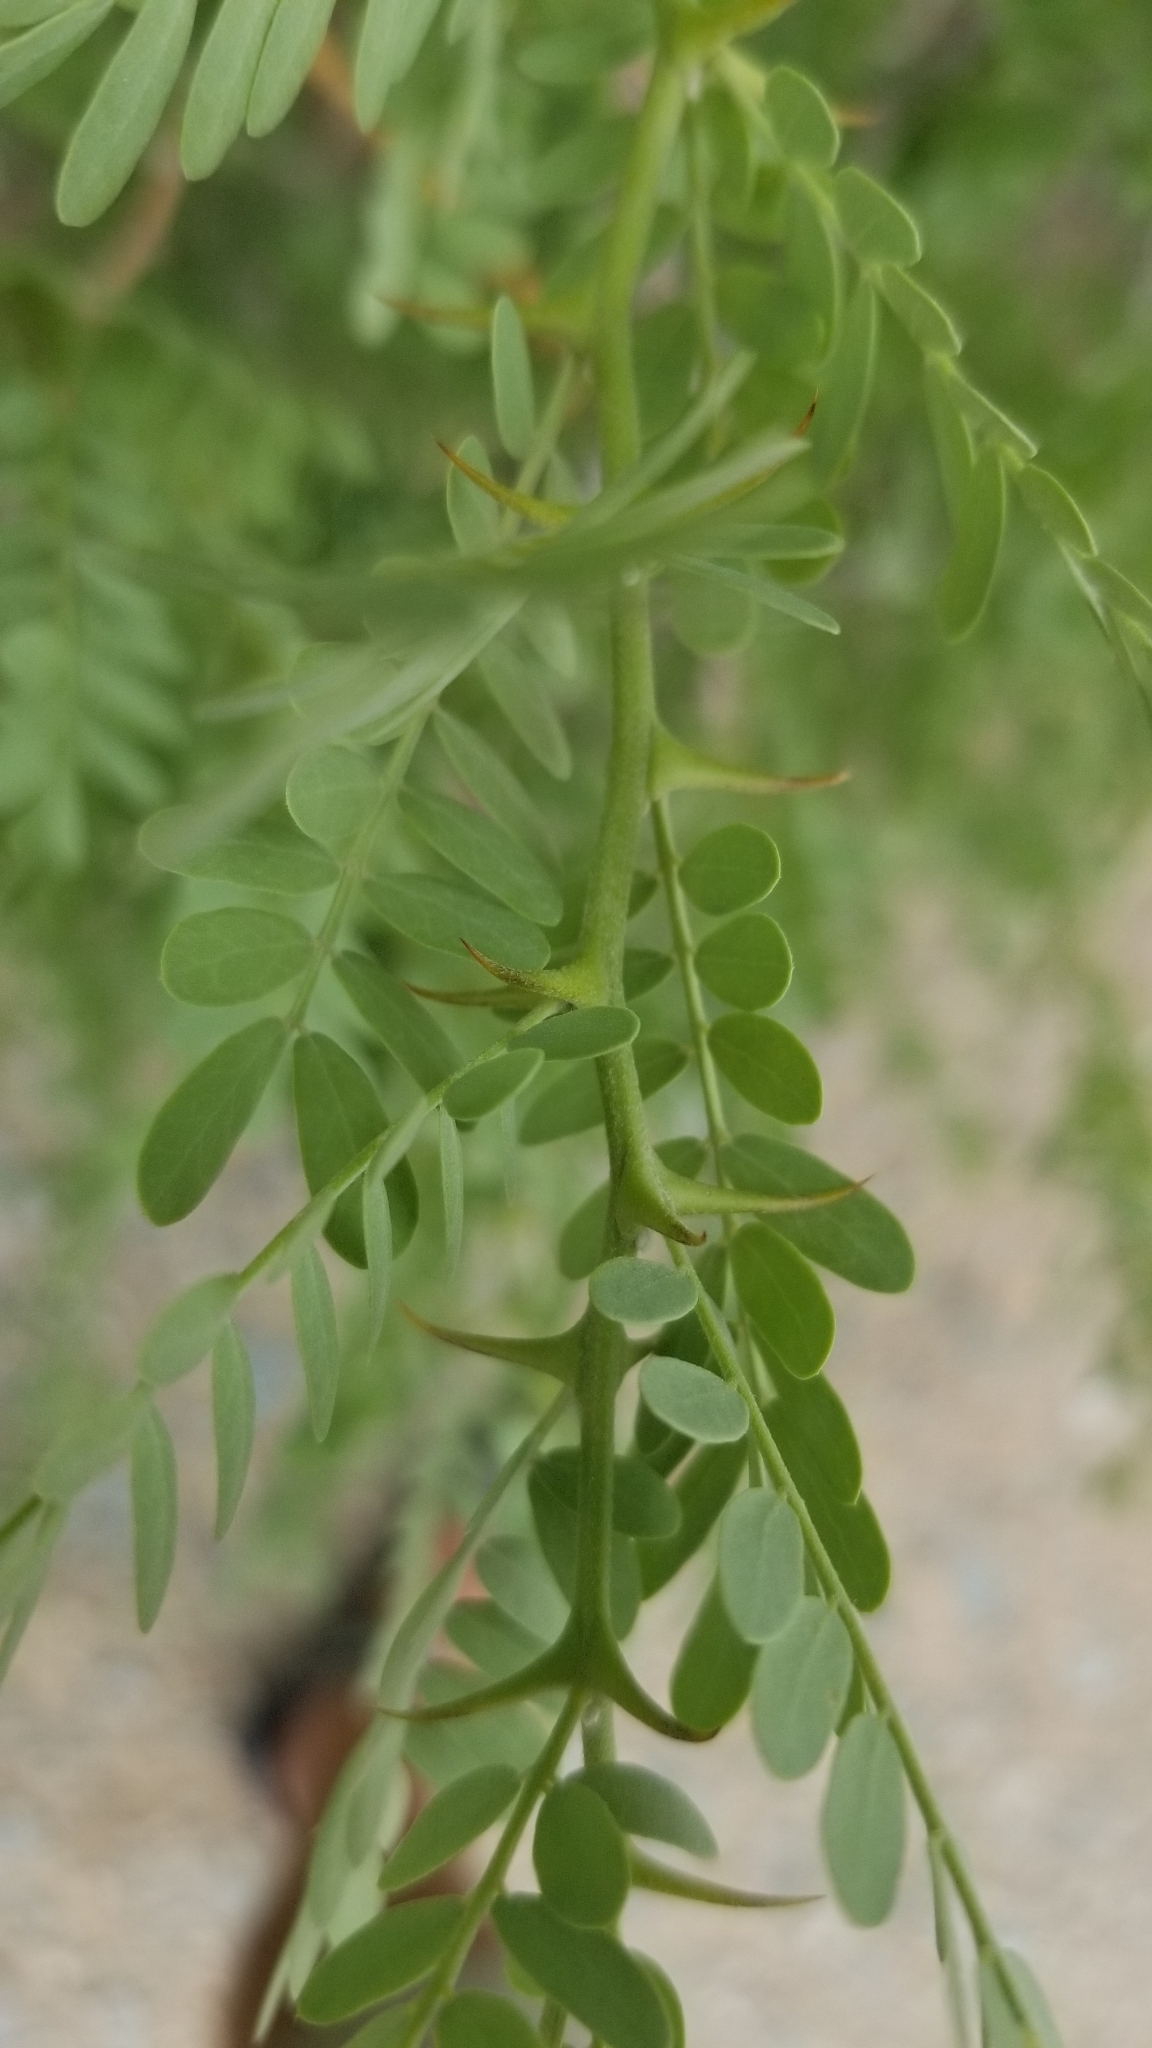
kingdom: Plantae
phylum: Tracheophyta
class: Magnoliopsida
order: Fabales
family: Fabaceae
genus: Olneya
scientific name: Olneya tesota
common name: Desert ironwood
